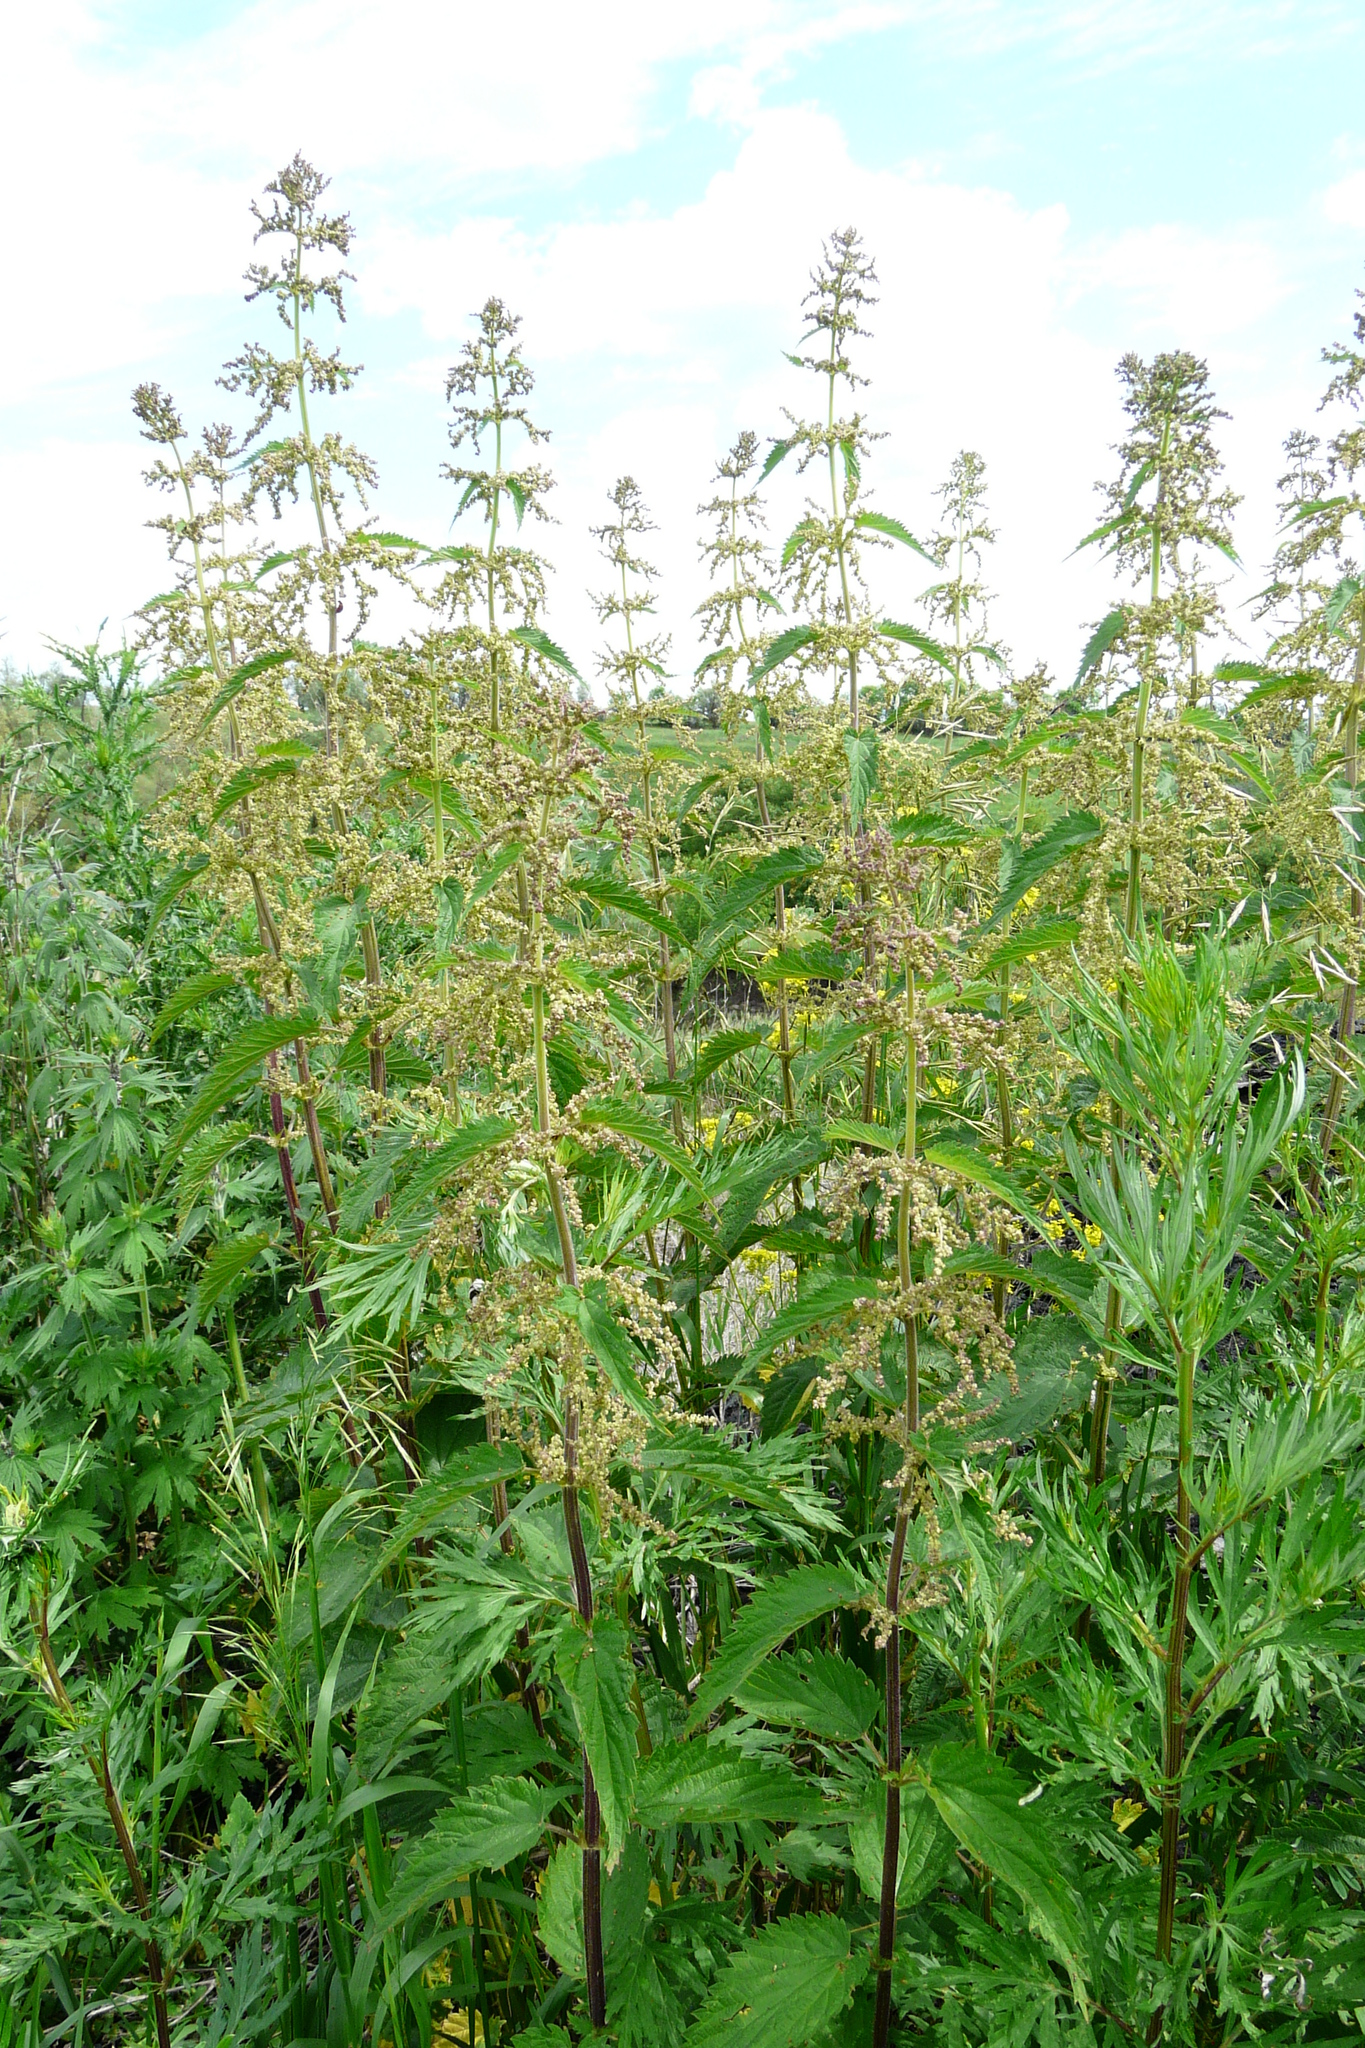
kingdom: Plantae
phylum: Tracheophyta
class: Magnoliopsida
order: Rosales
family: Urticaceae
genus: Urtica
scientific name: Urtica dioica
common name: Common nettle
